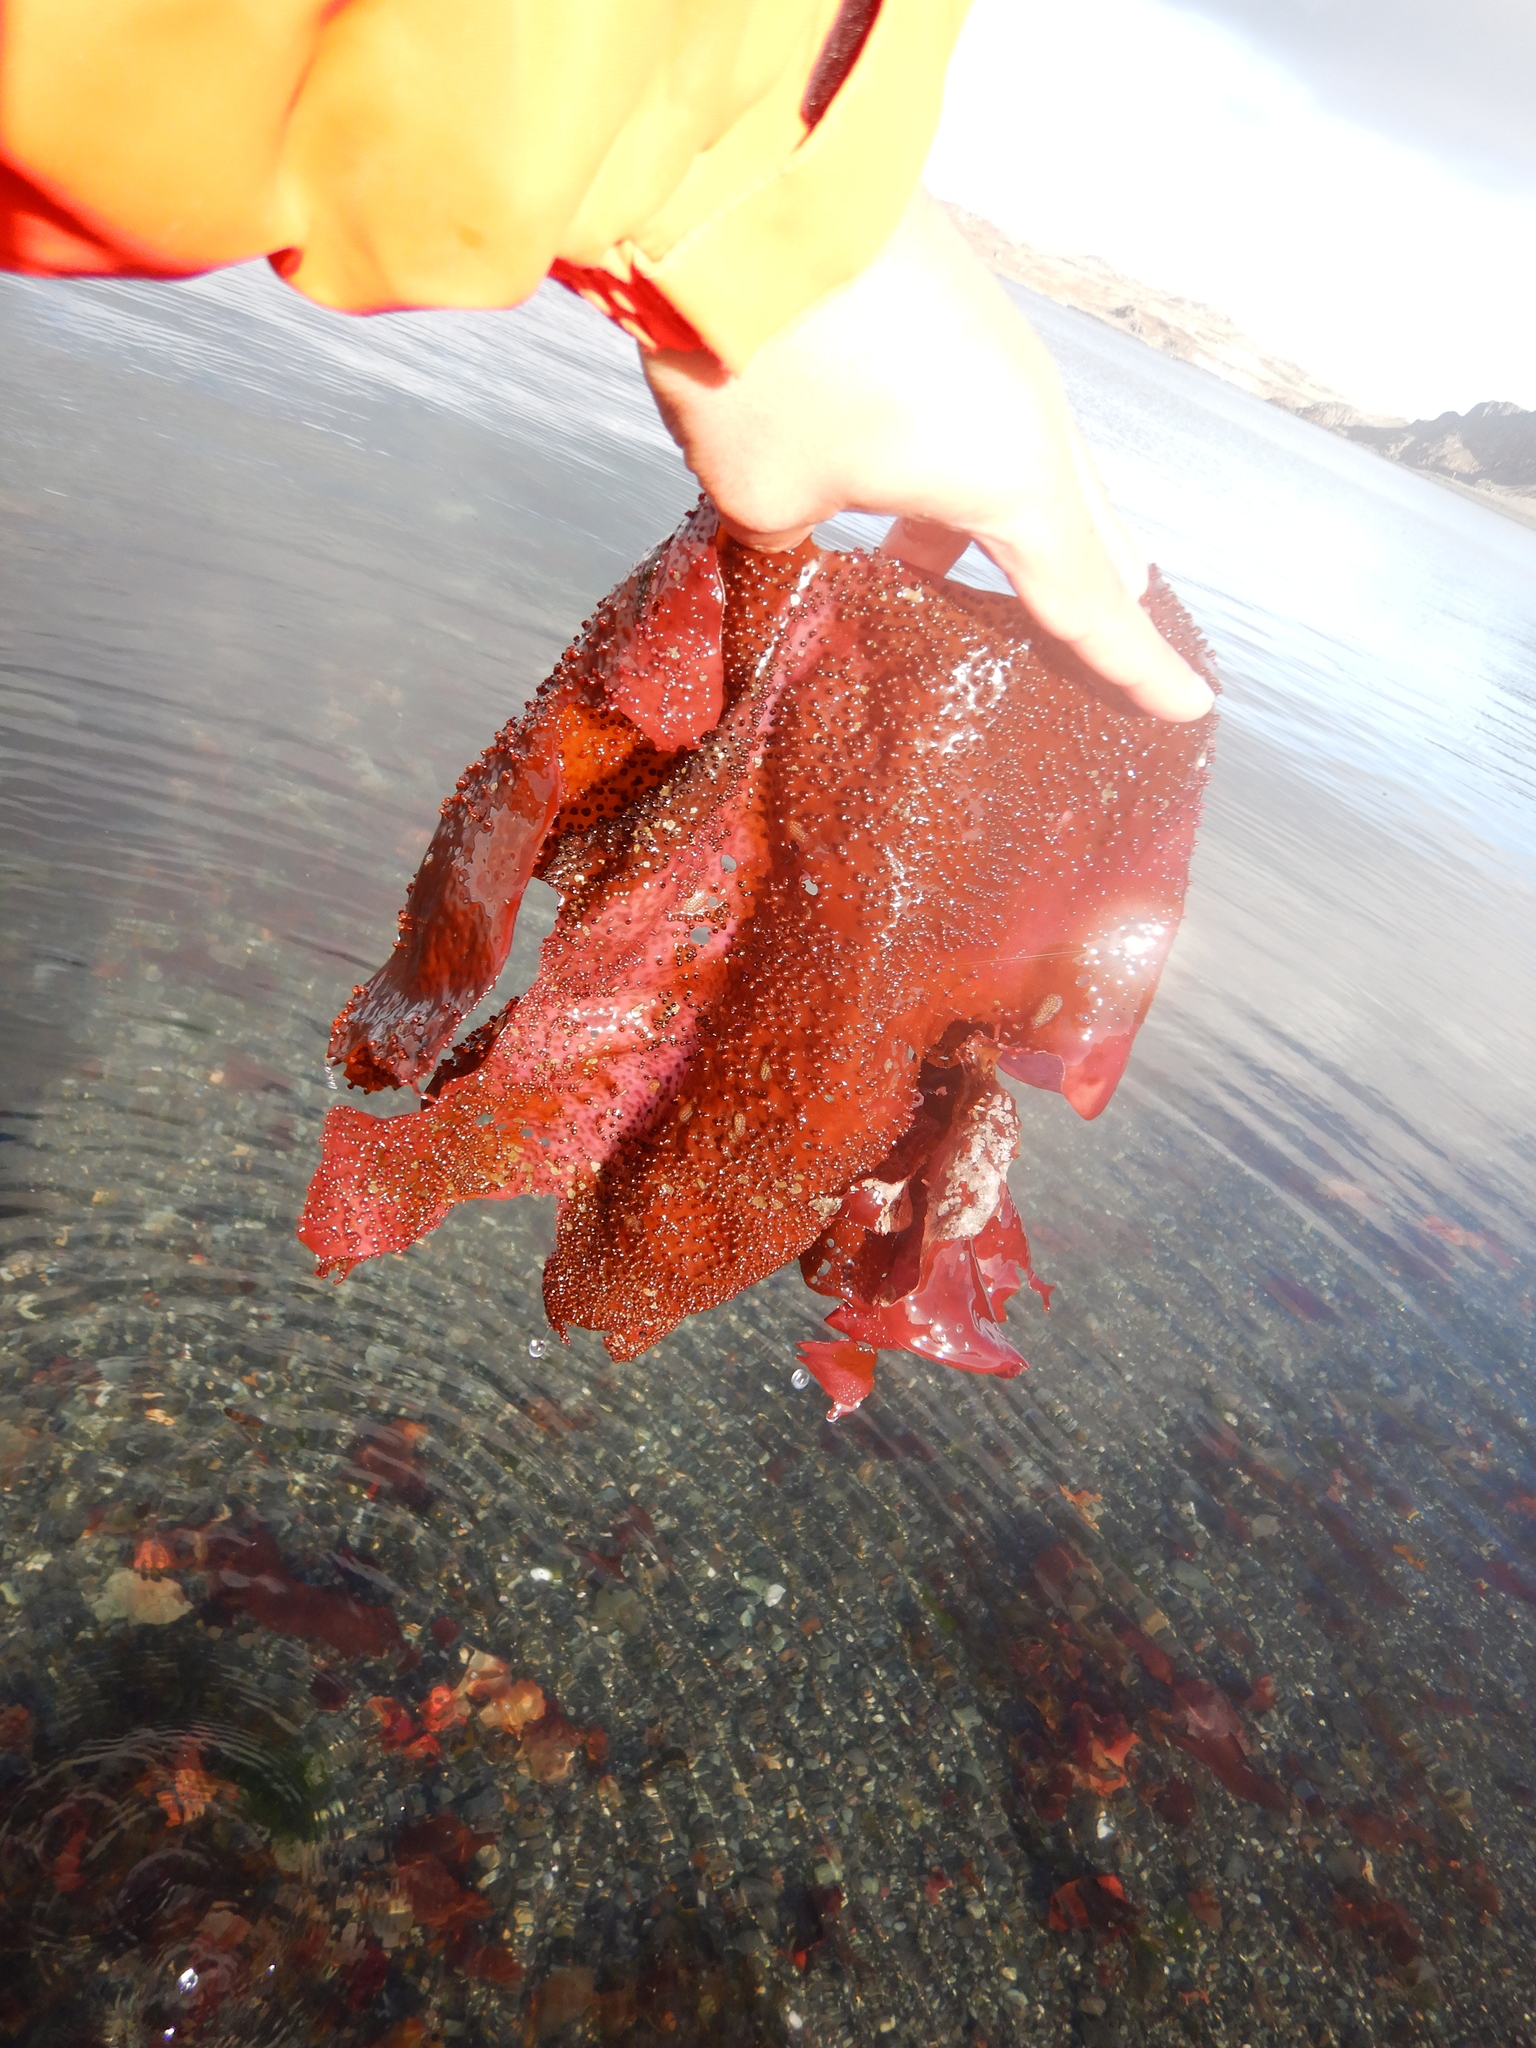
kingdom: Plantae
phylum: Rhodophyta
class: Florideophyceae
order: Gigartinales
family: Gigartinaceae
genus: Sarcopeltis
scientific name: Sarcopeltis
